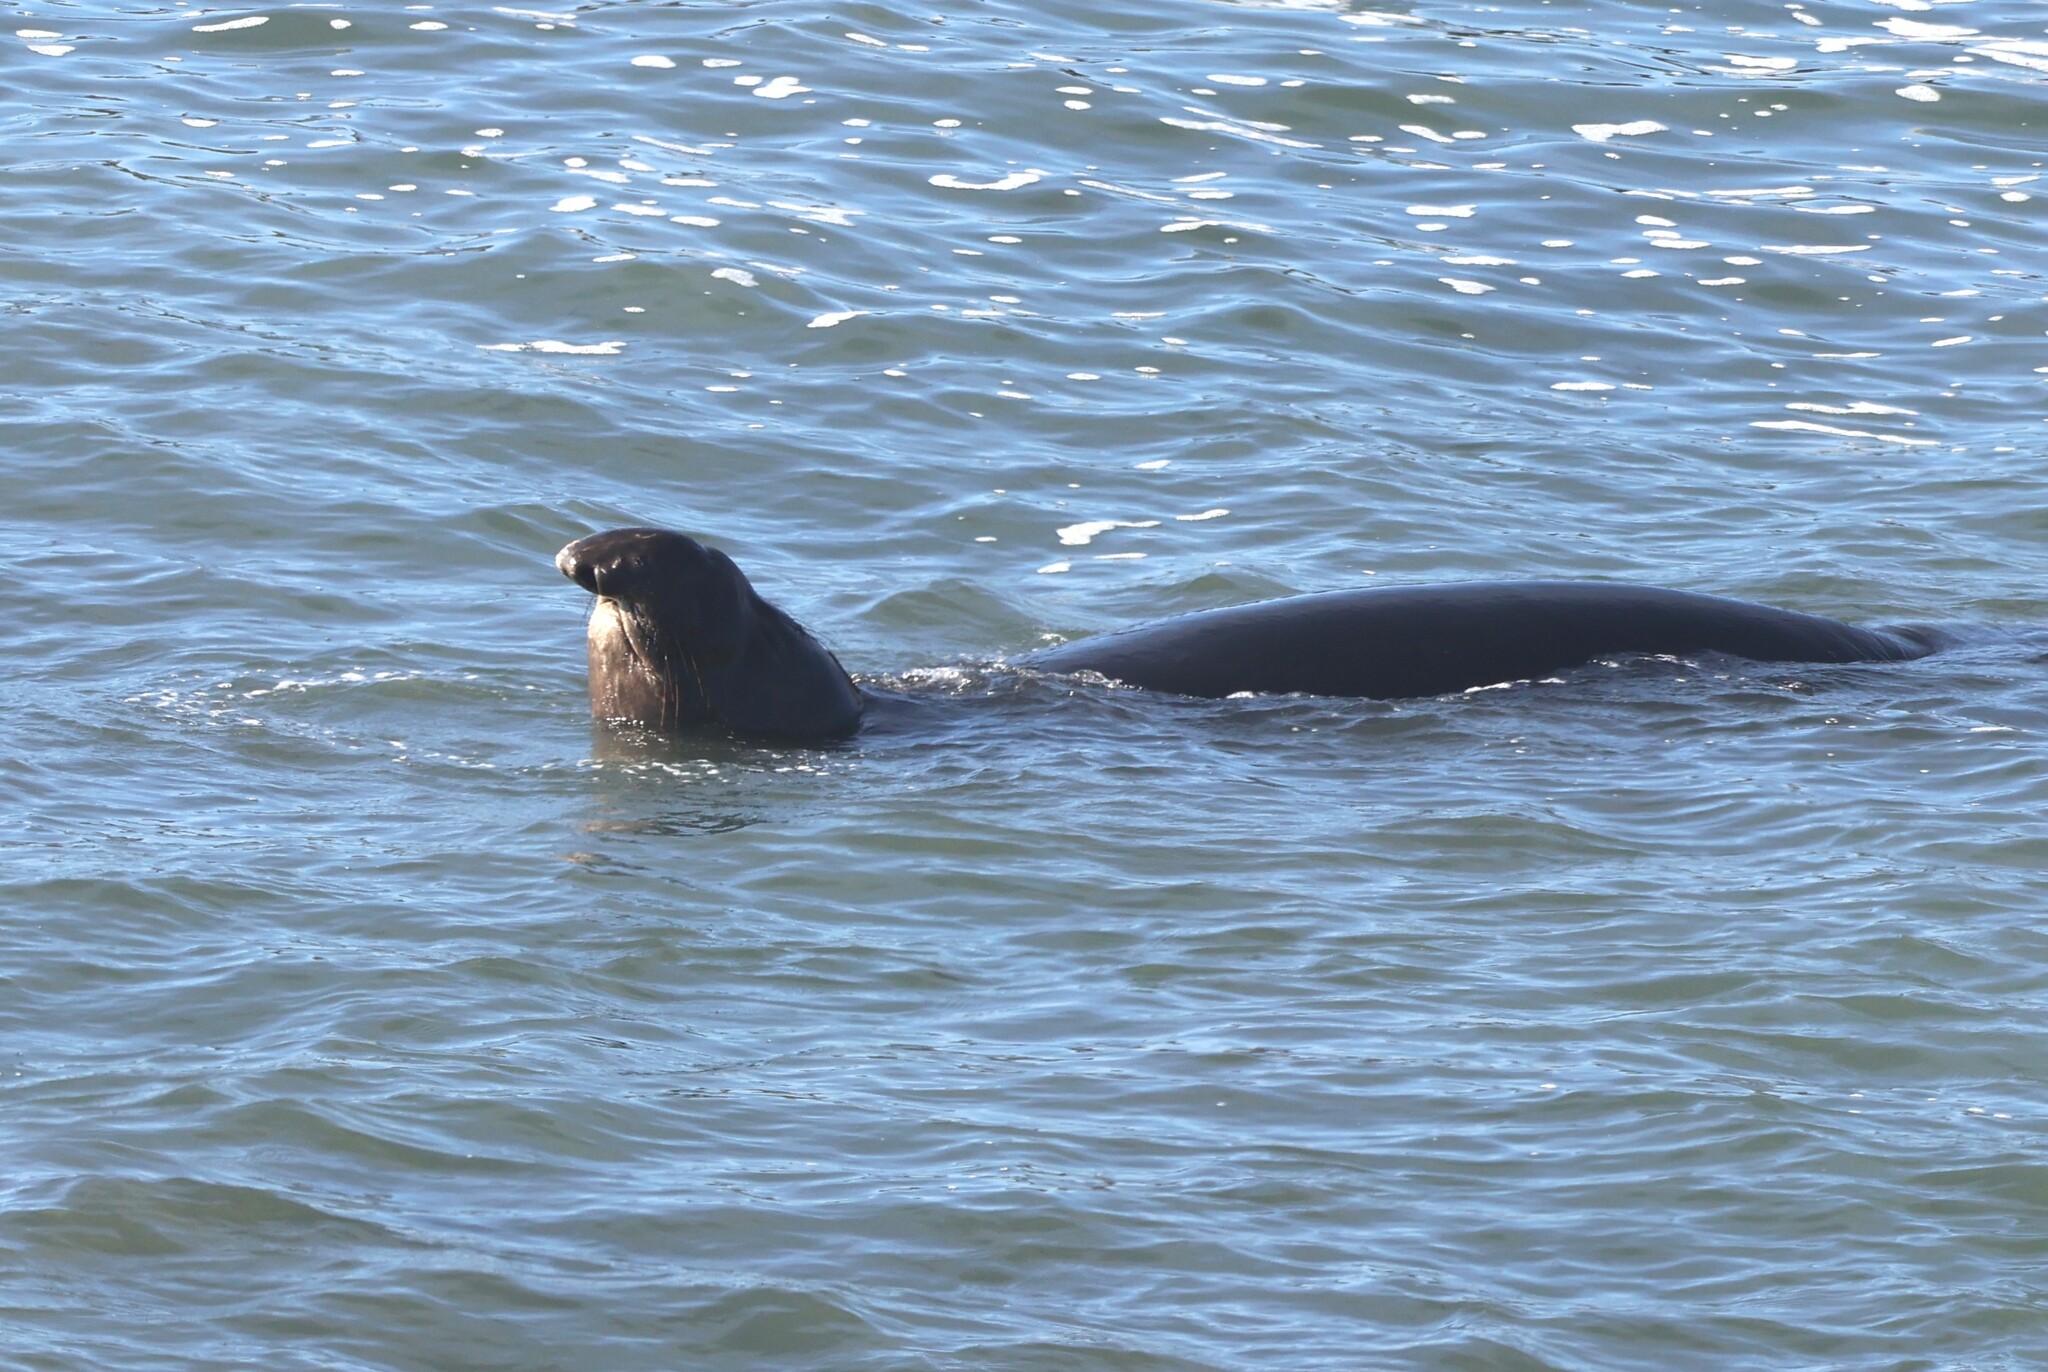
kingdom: Animalia
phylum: Chordata
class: Mammalia
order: Carnivora
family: Phocidae
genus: Mirounga
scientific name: Mirounga angustirostris
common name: Northern elephant seal
